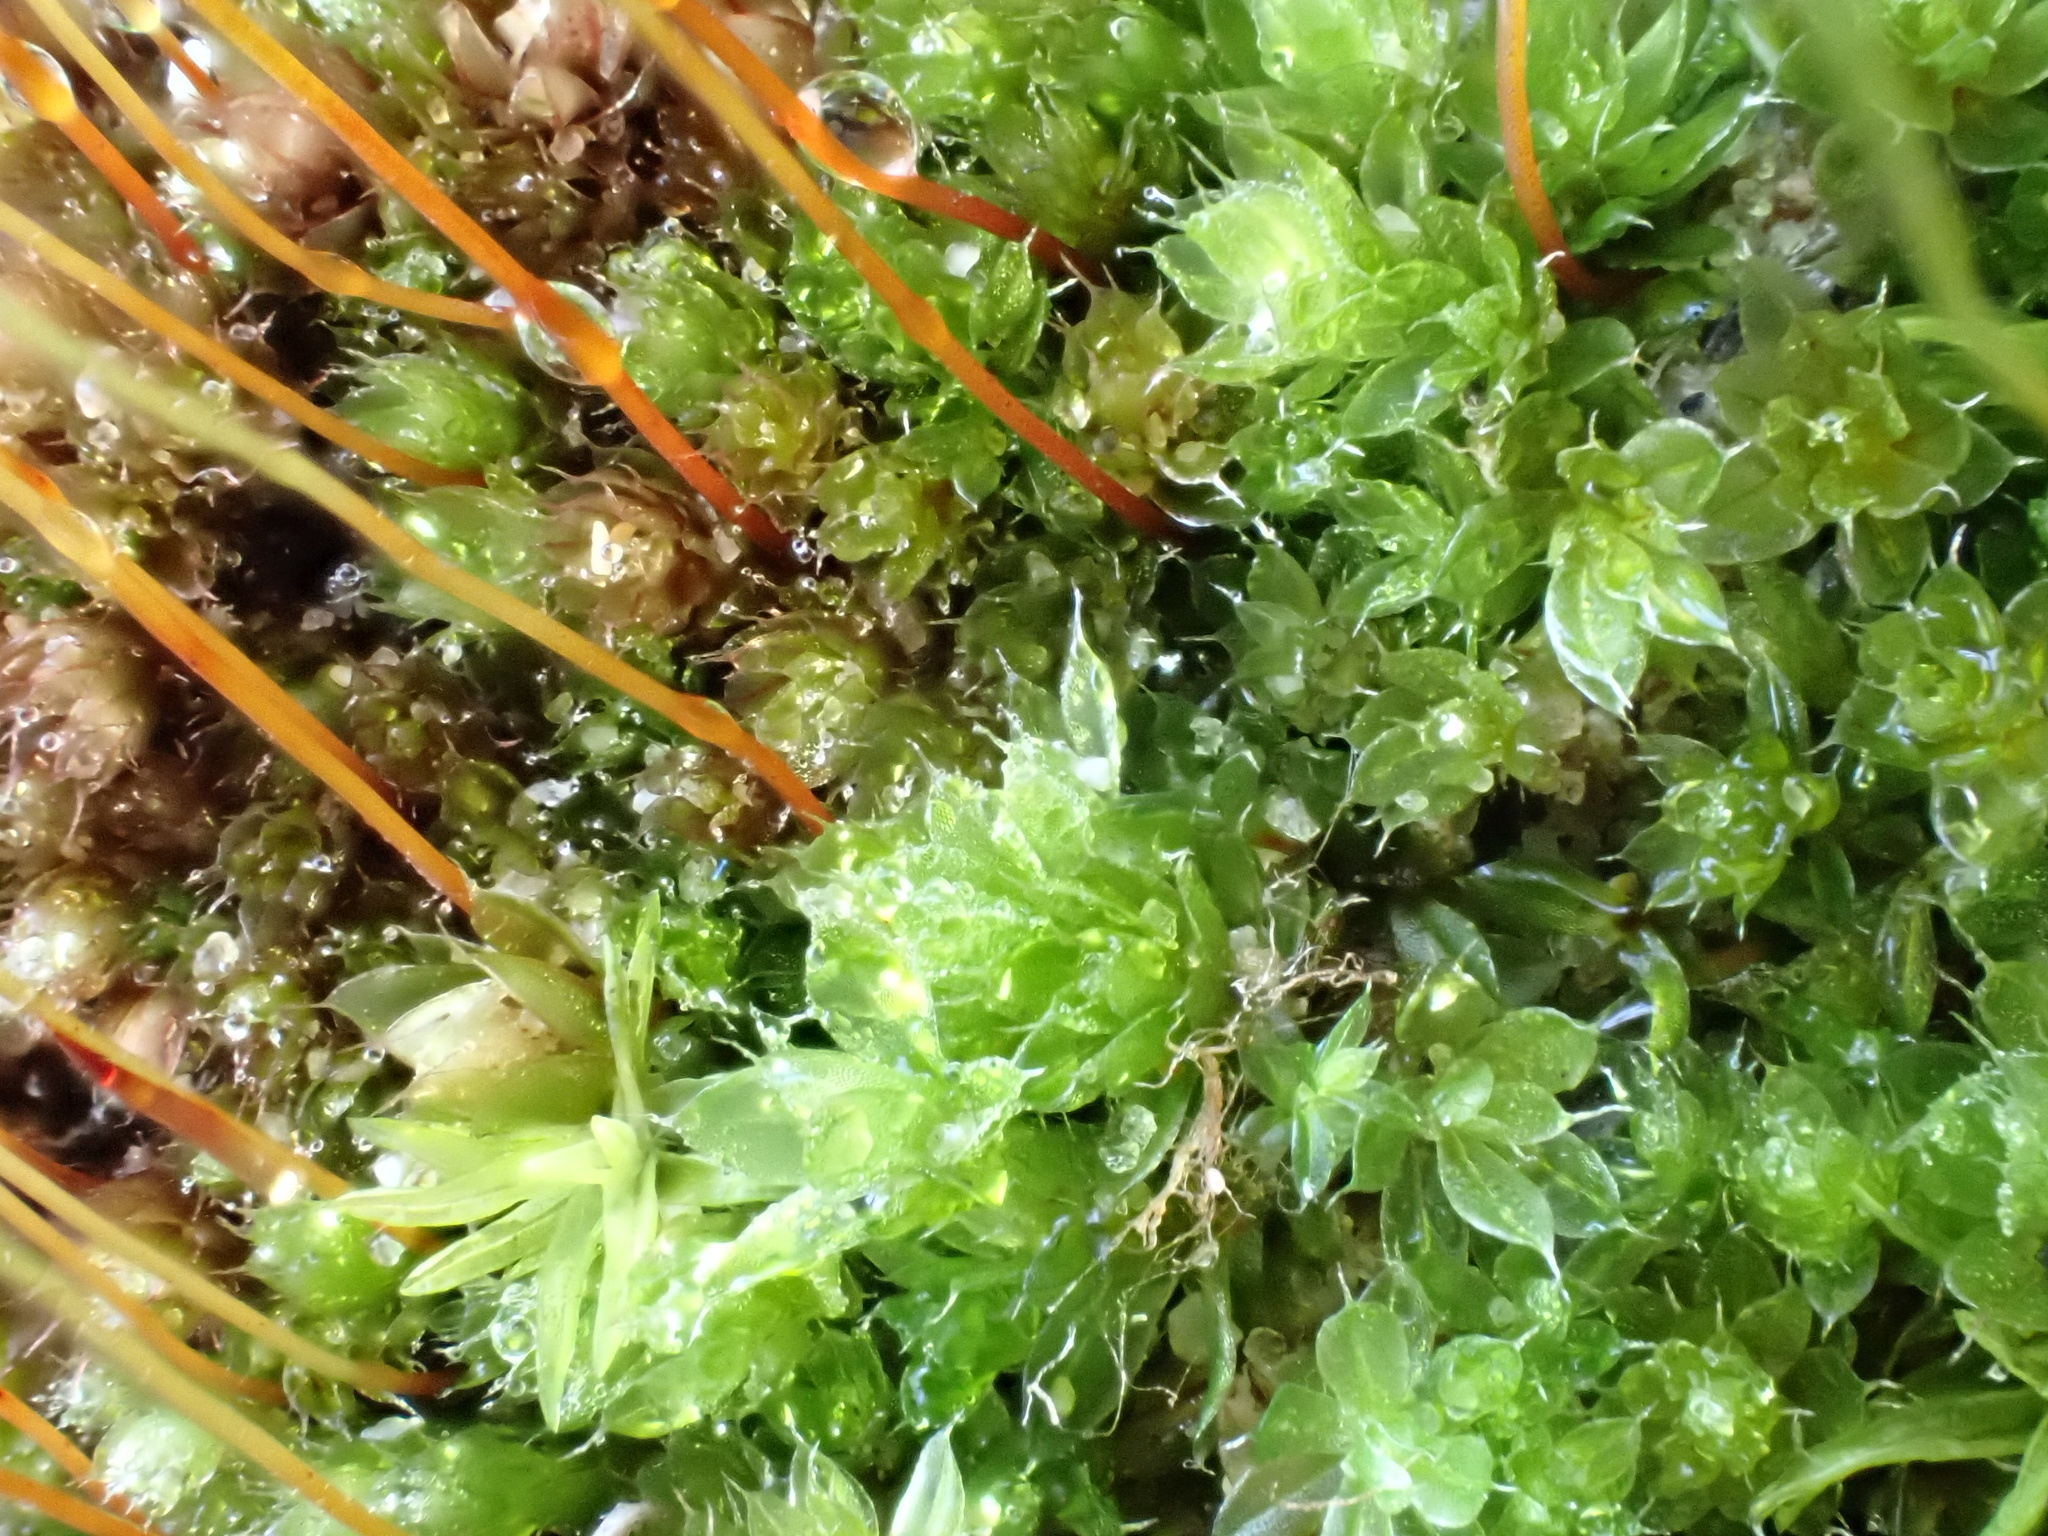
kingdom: Plantae
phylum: Bryophyta
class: Bryopsida
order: Bryales
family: Bryaceae
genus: Rosulabryum
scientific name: Rosulabryum capillare
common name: Capillary thread-moss
